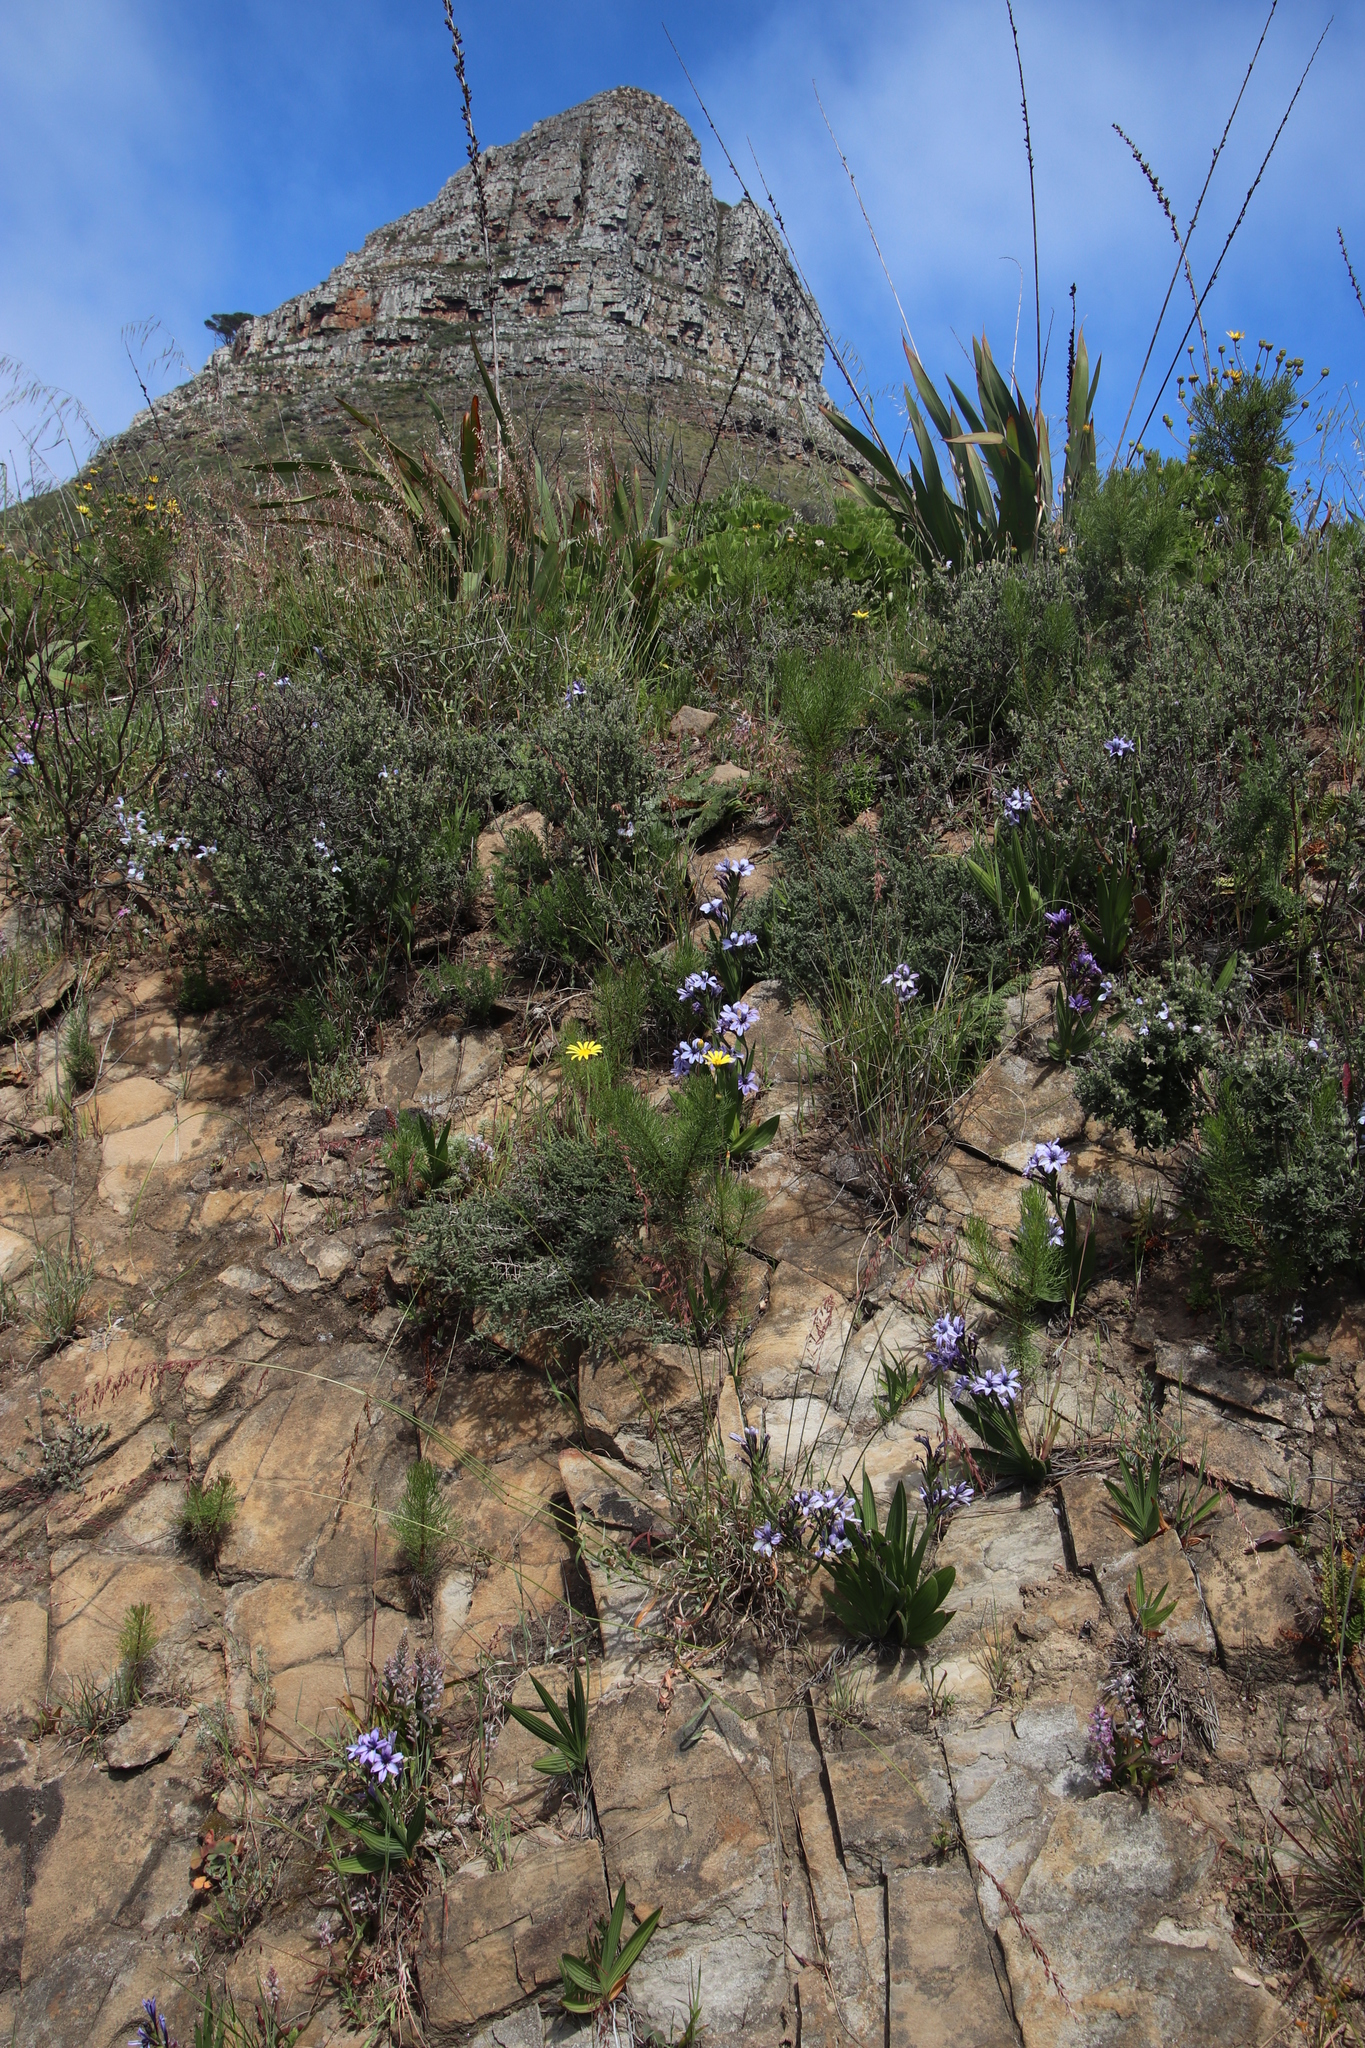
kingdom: Plantae
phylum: Tracheophyta
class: Liliopsida
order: Asparagales
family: Iridaceae
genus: Babiana
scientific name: Babiana fragrans
